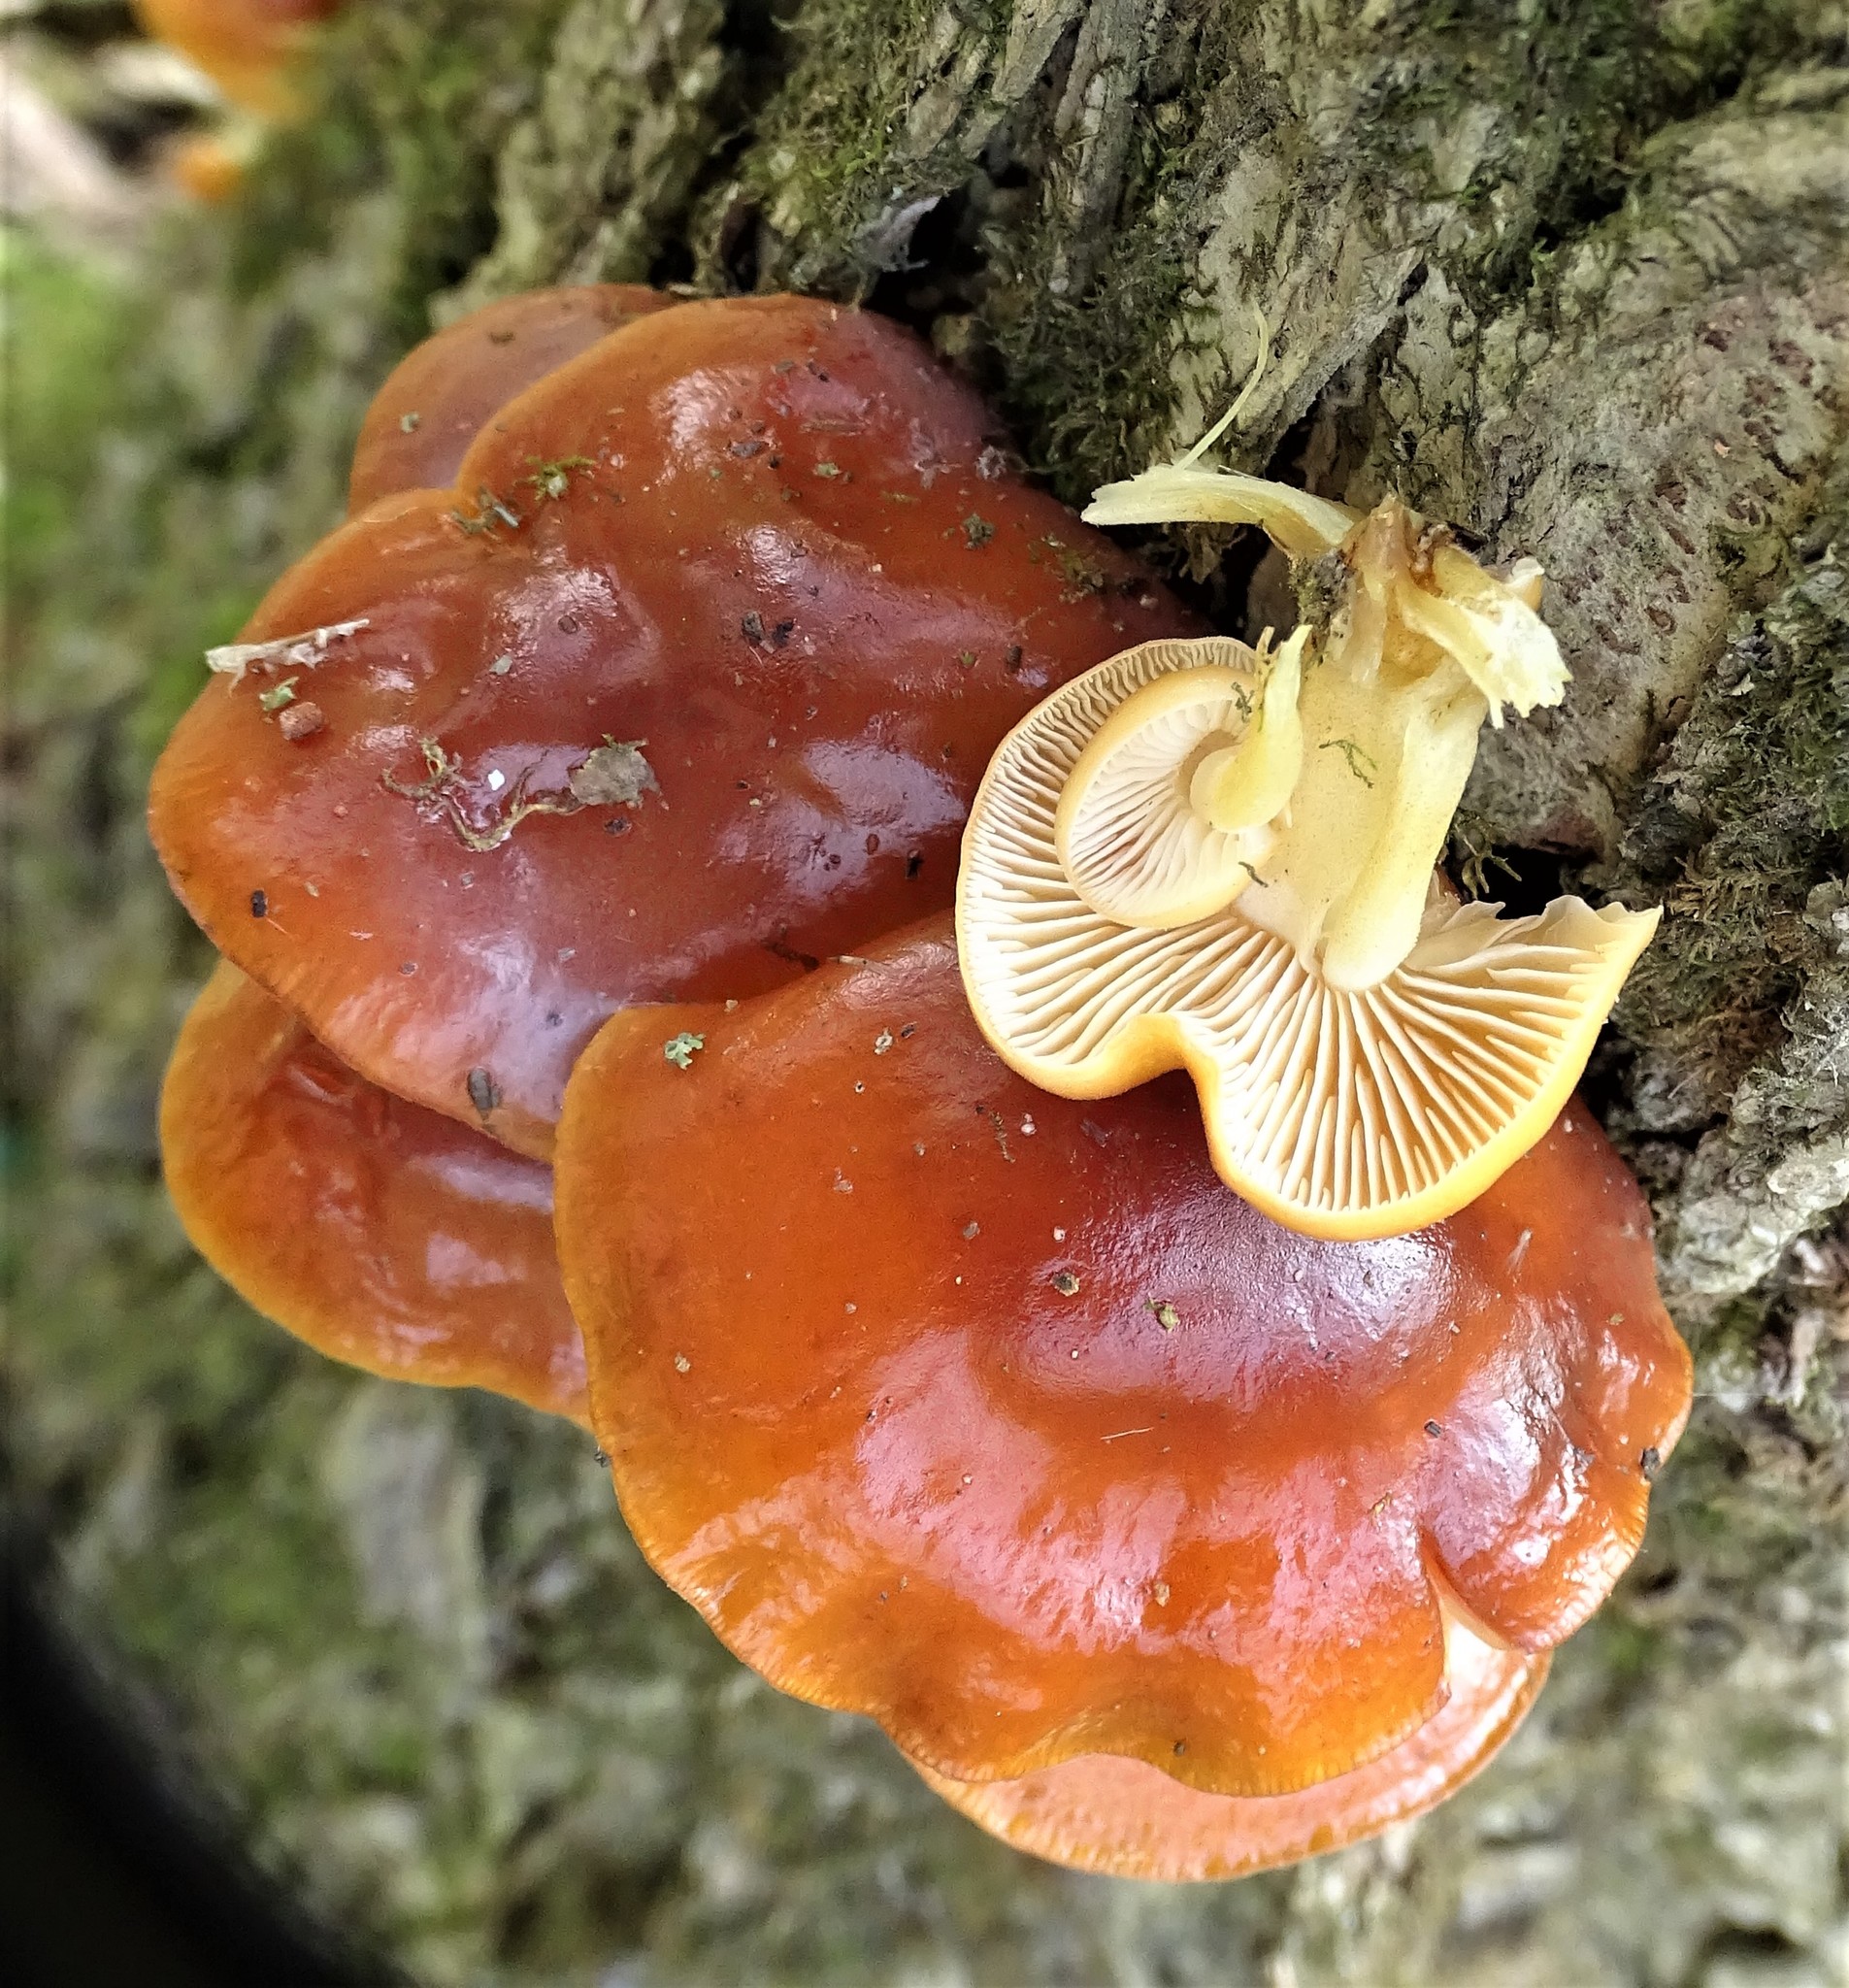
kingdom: Fungi
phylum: Basidiomycota
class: Agaricomycetes
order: Agaricales
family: Physalacriaceae
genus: Flammulina
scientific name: Flammulina velutipes
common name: Velvet shank
